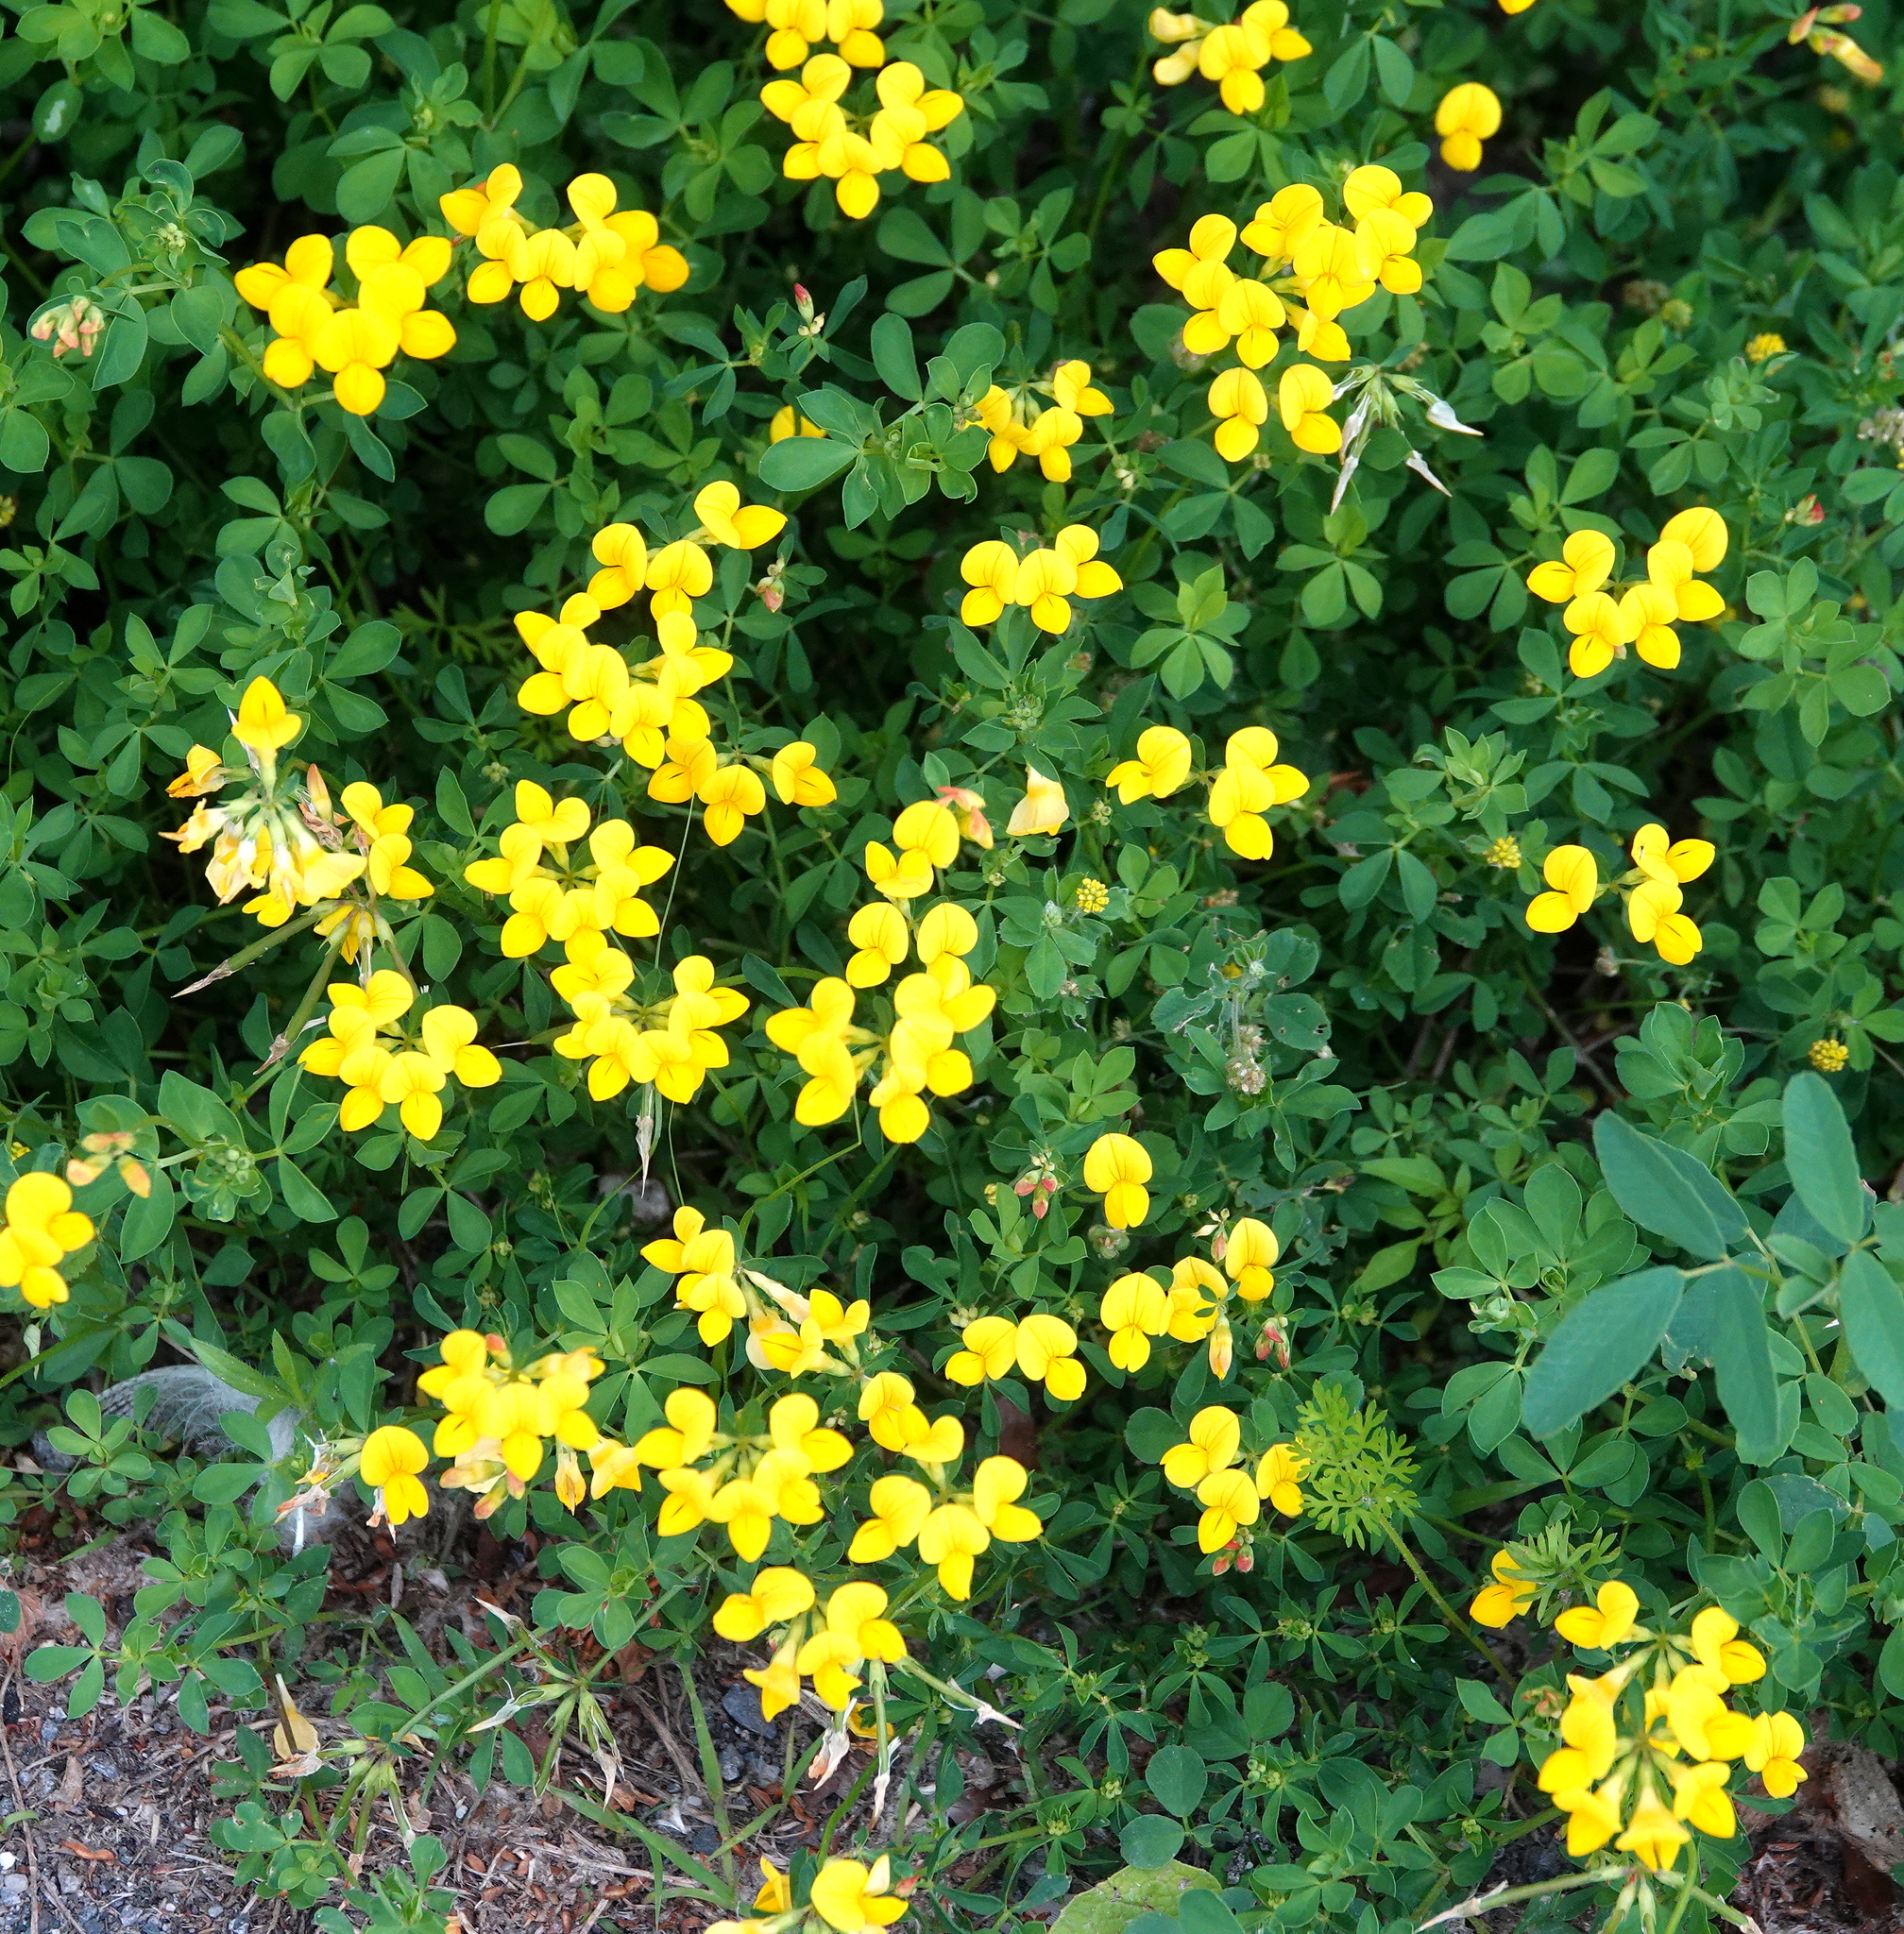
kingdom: Plantae
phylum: Tracheophyta
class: Magnoliopsida
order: Fabales
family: Fabaceae
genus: Lotus
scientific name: Lotus corniculatus
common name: Common bird's-foot-trefoil
